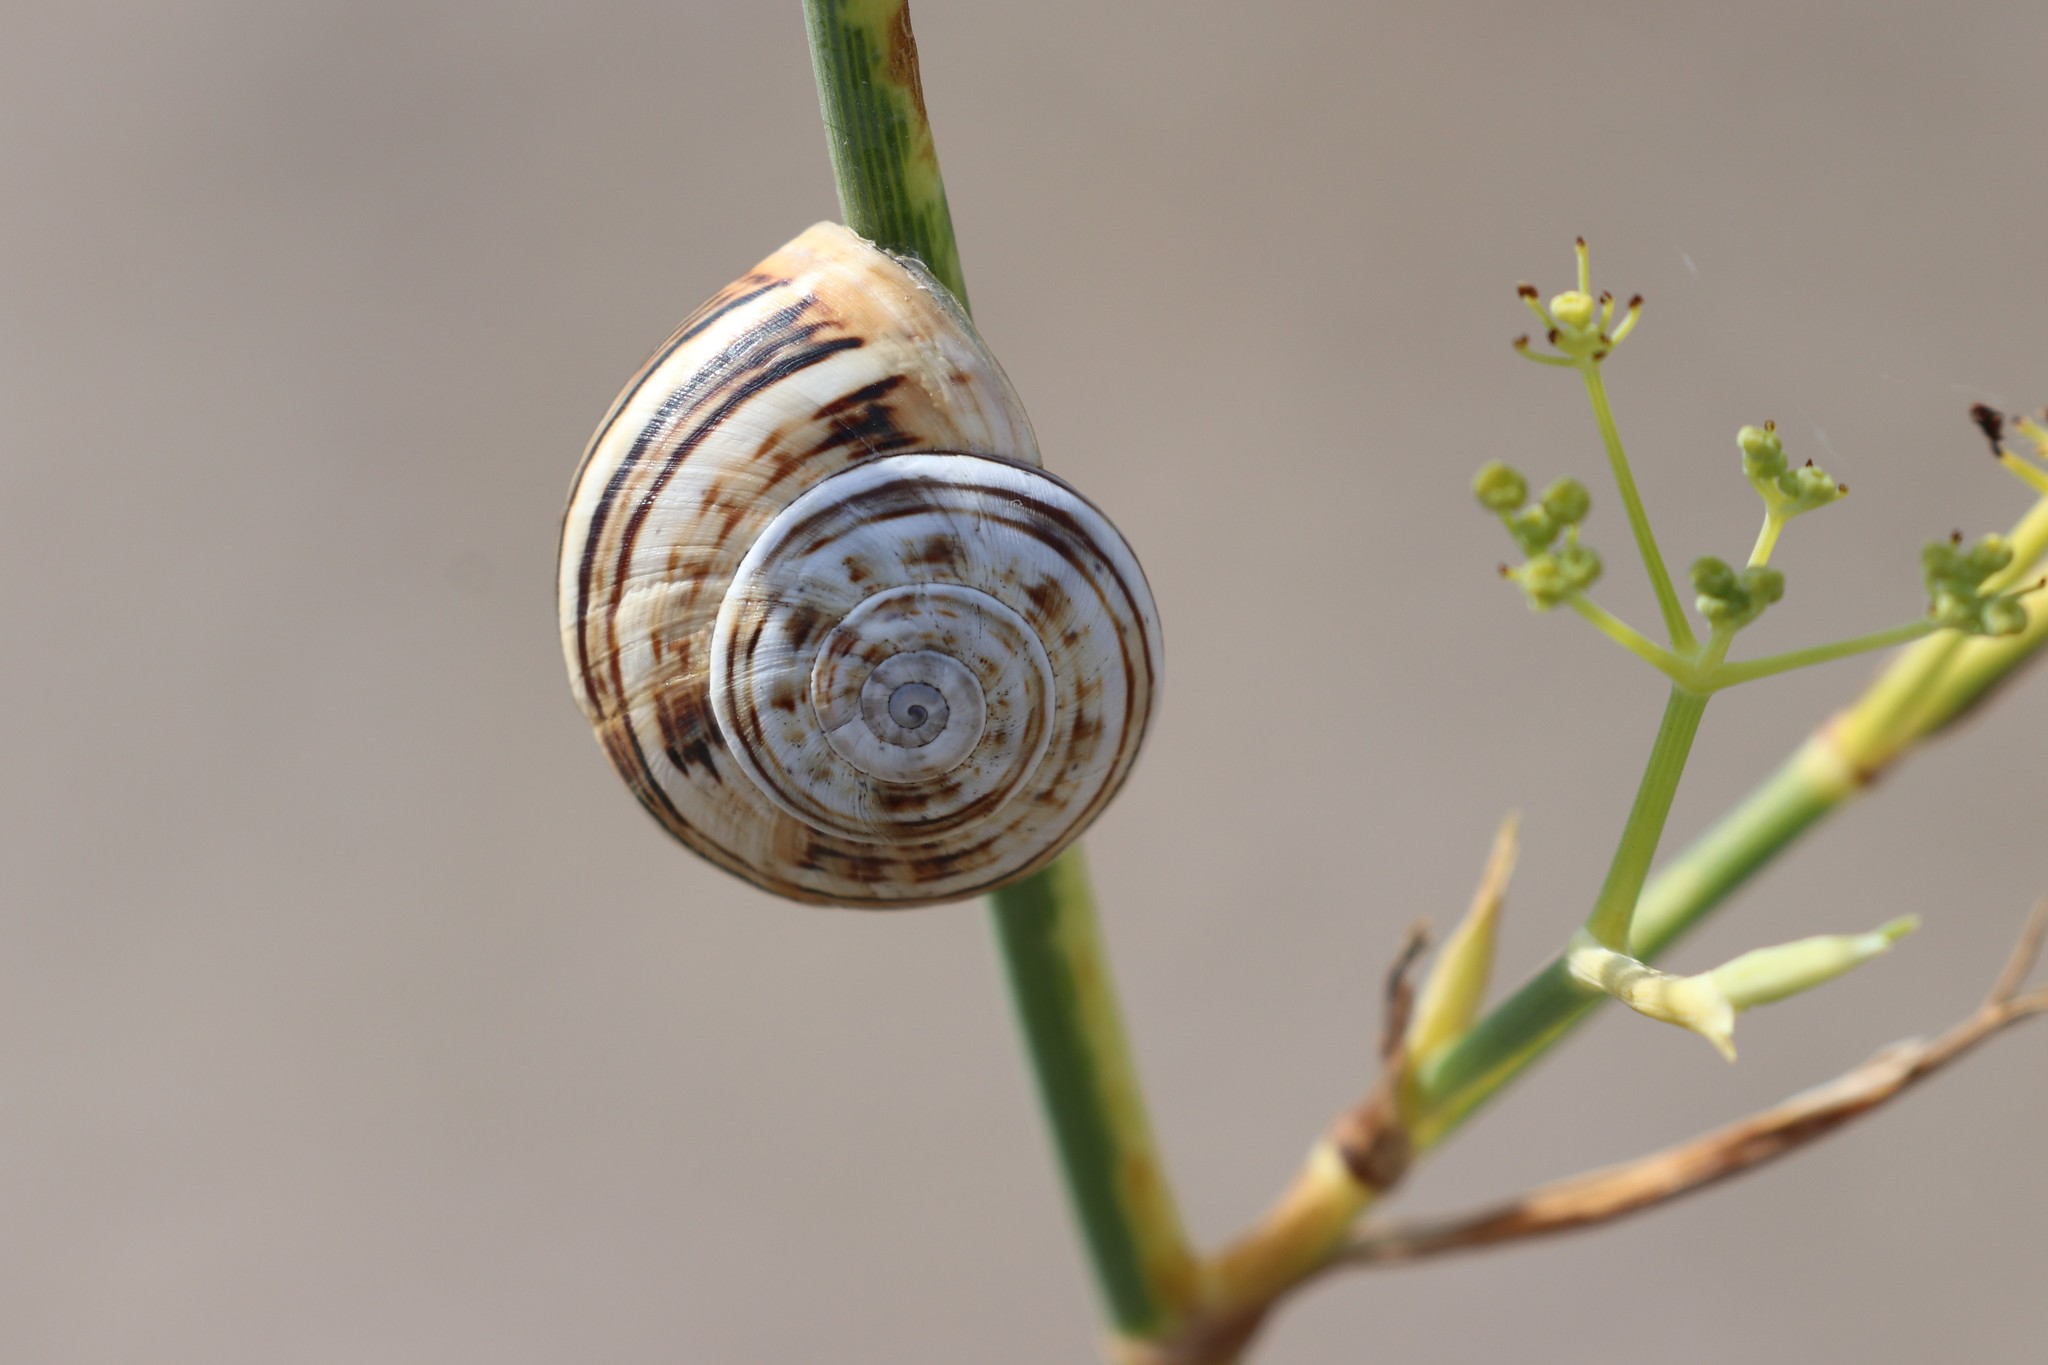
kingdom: Animalia
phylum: Mollusca
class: Gastropoda
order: Stylommatophora
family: Helicidae
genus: Theba
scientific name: Theba pisana
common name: White snail
